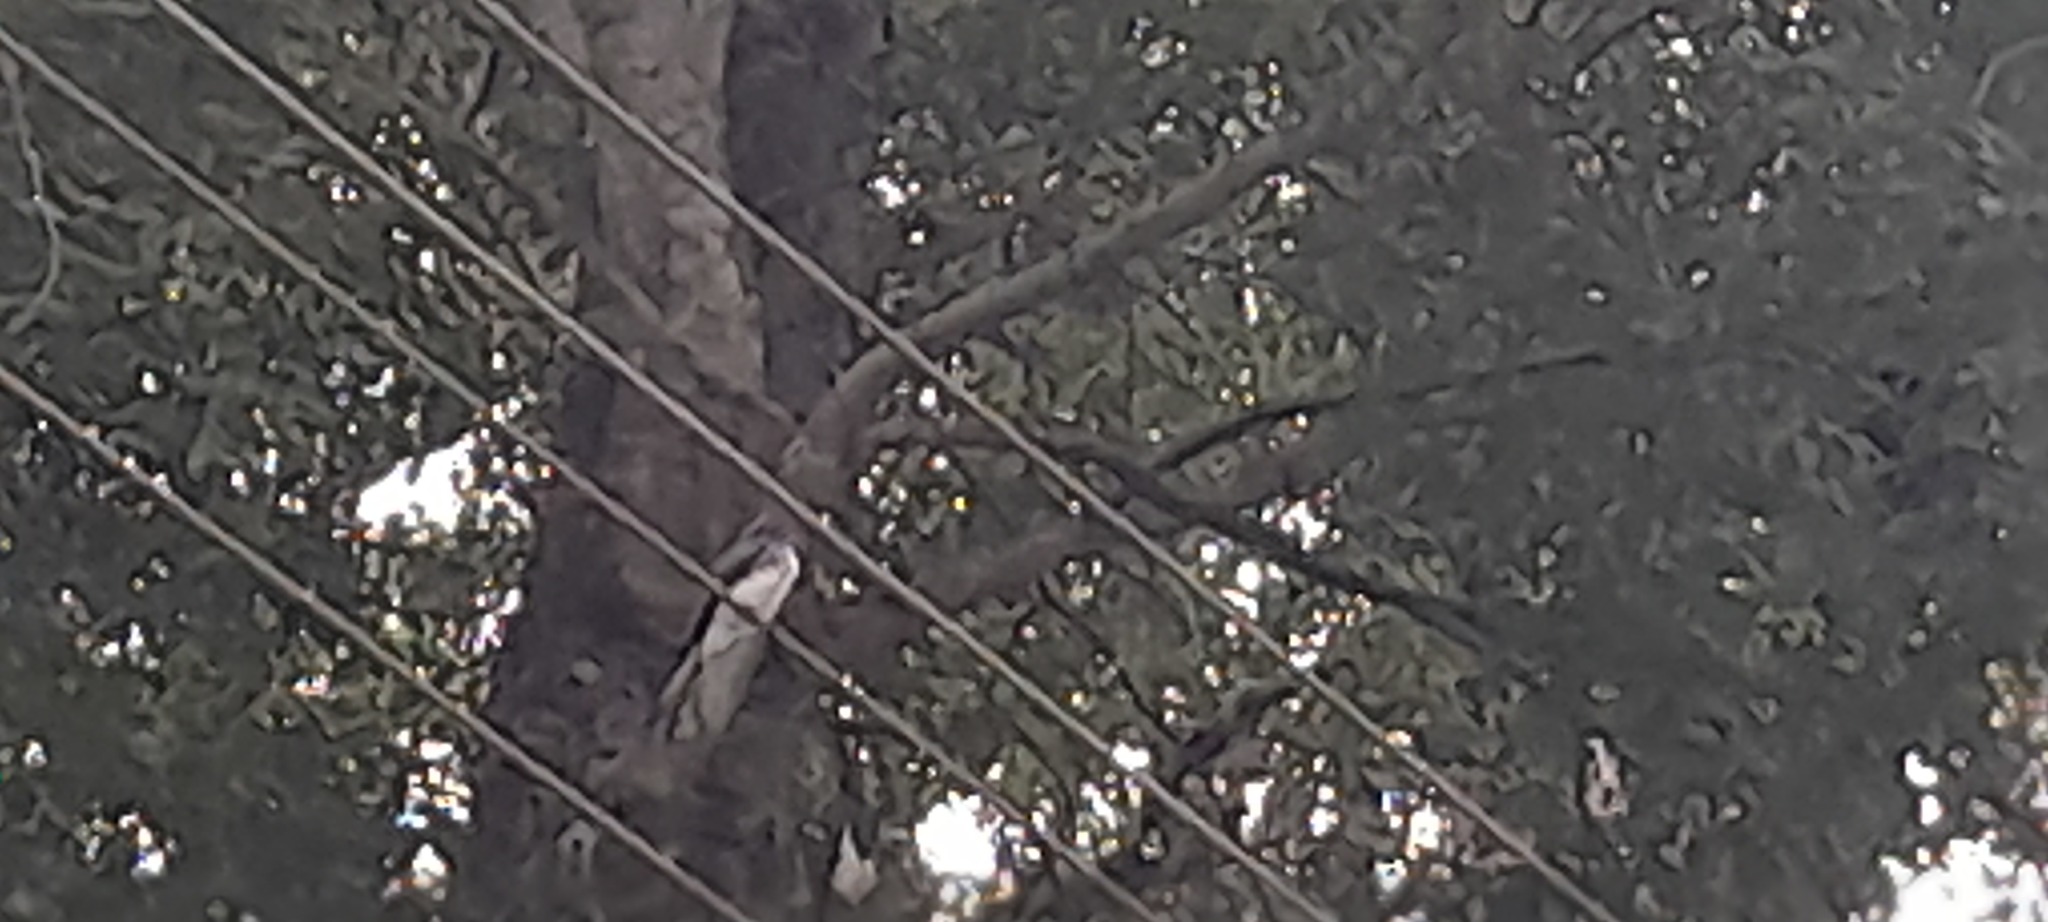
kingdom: Animalia
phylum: Chordata
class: Aves
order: Passeriformes
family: Dicruridae
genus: Dicrurus
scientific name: Dicrurus caerulescens
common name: White-bellied drongo
